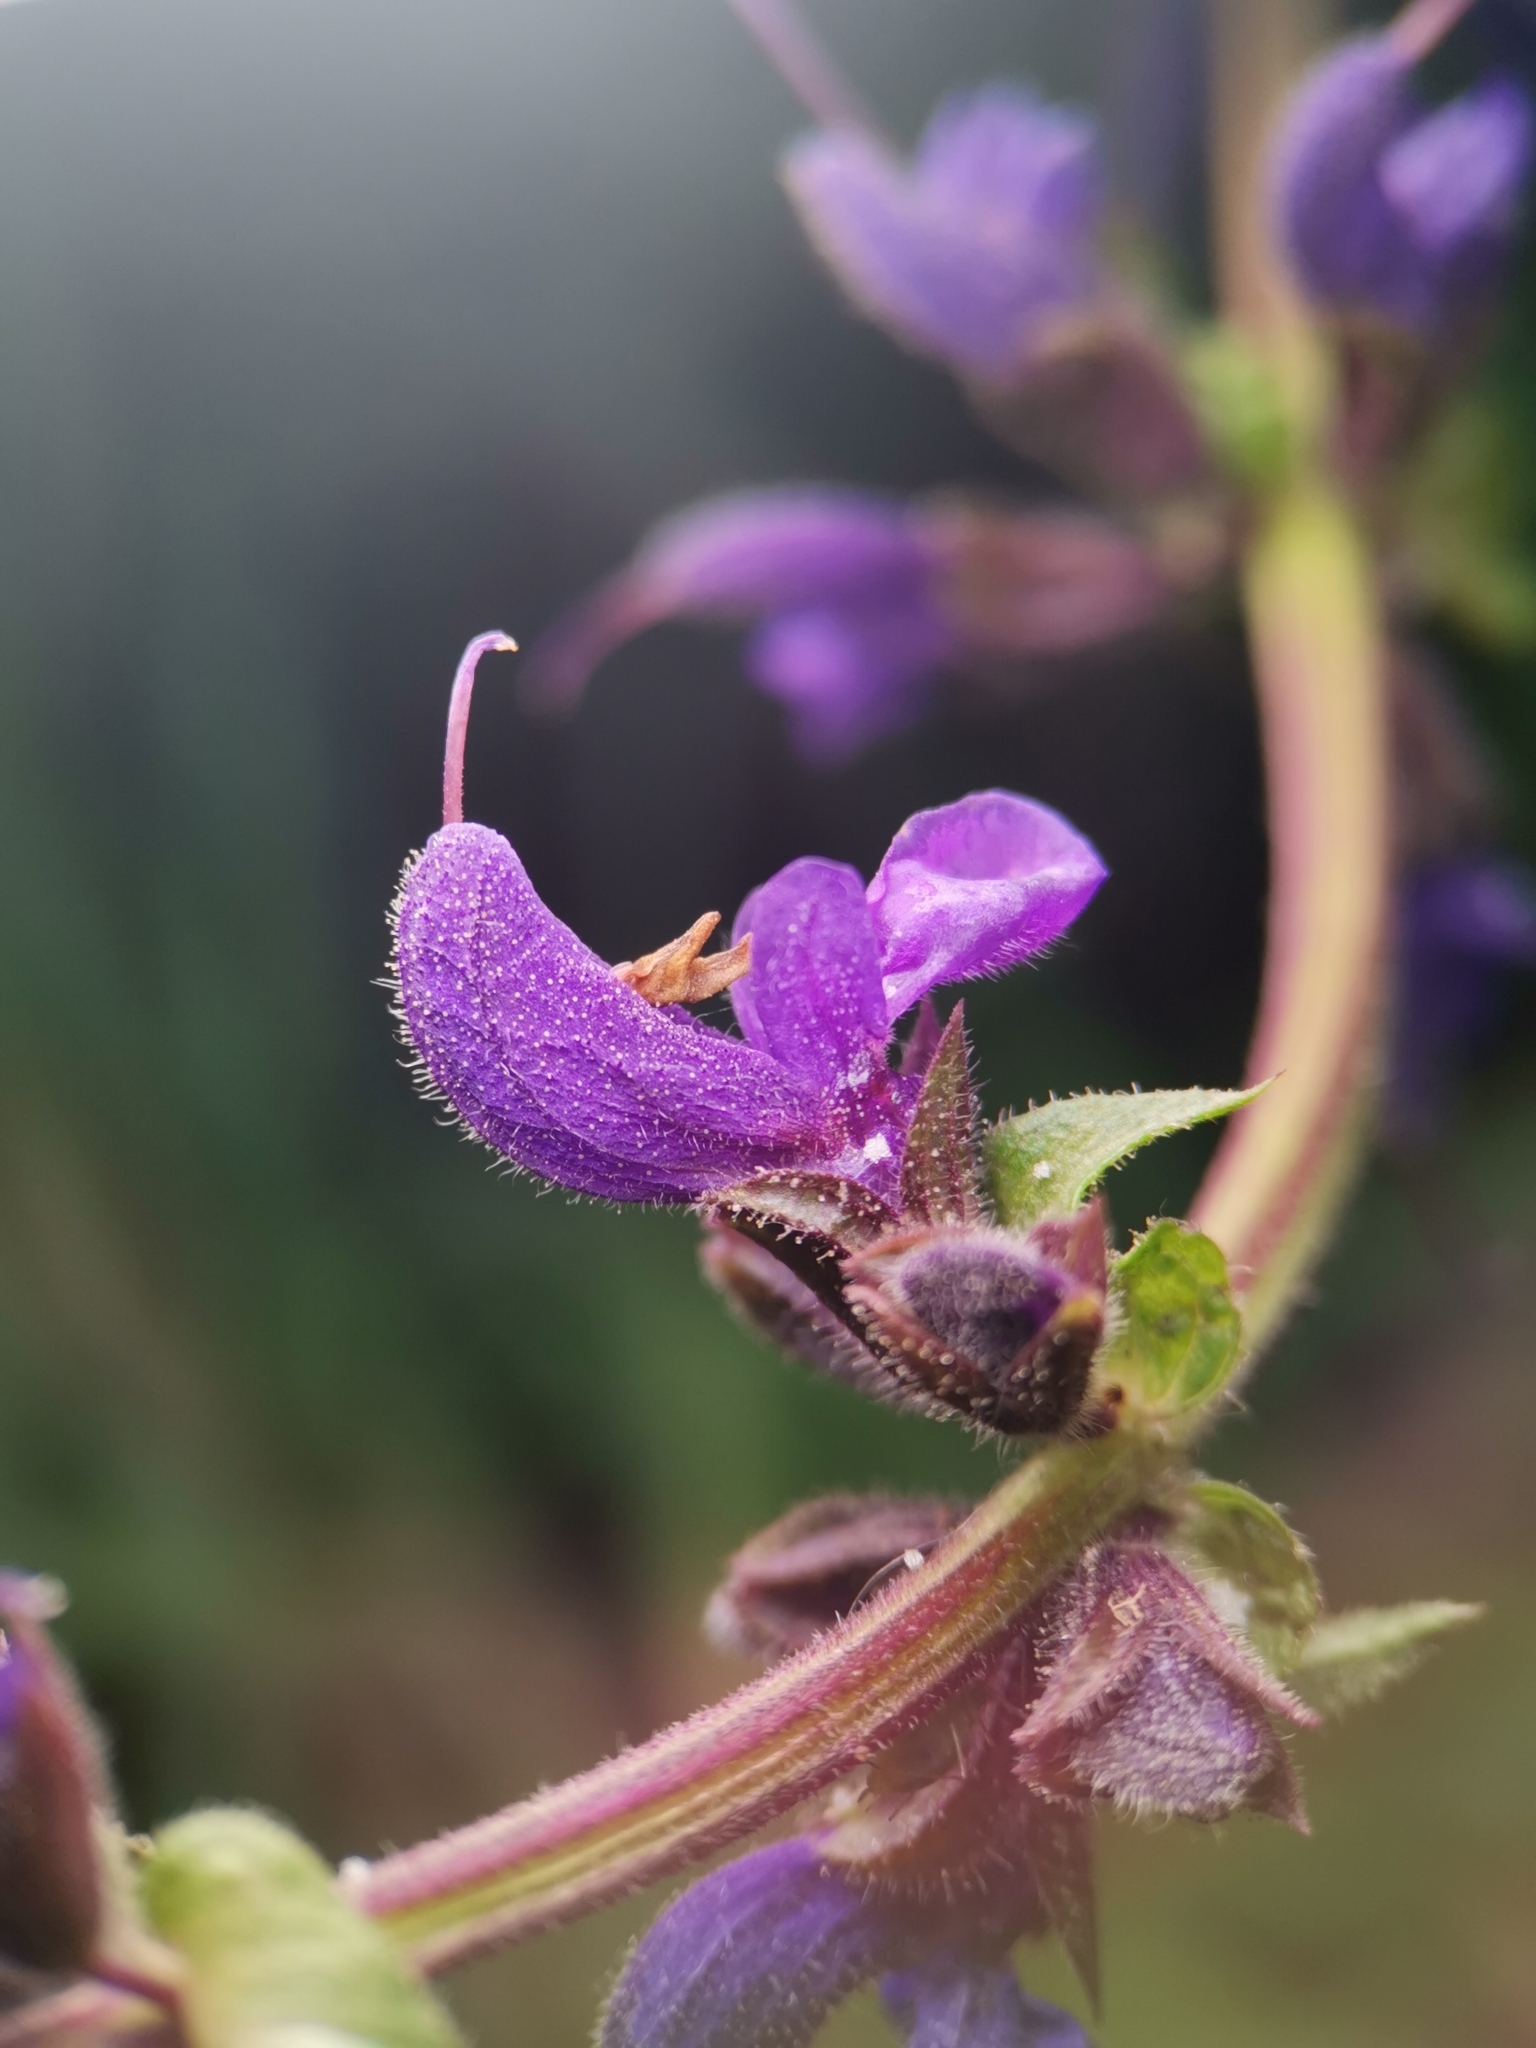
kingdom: Plantae
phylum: Tracheophyta
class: Magnoliopsida
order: Lamiales
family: Lamiaceae
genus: Salvia
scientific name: Salvia pratensis
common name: Meadow sage
